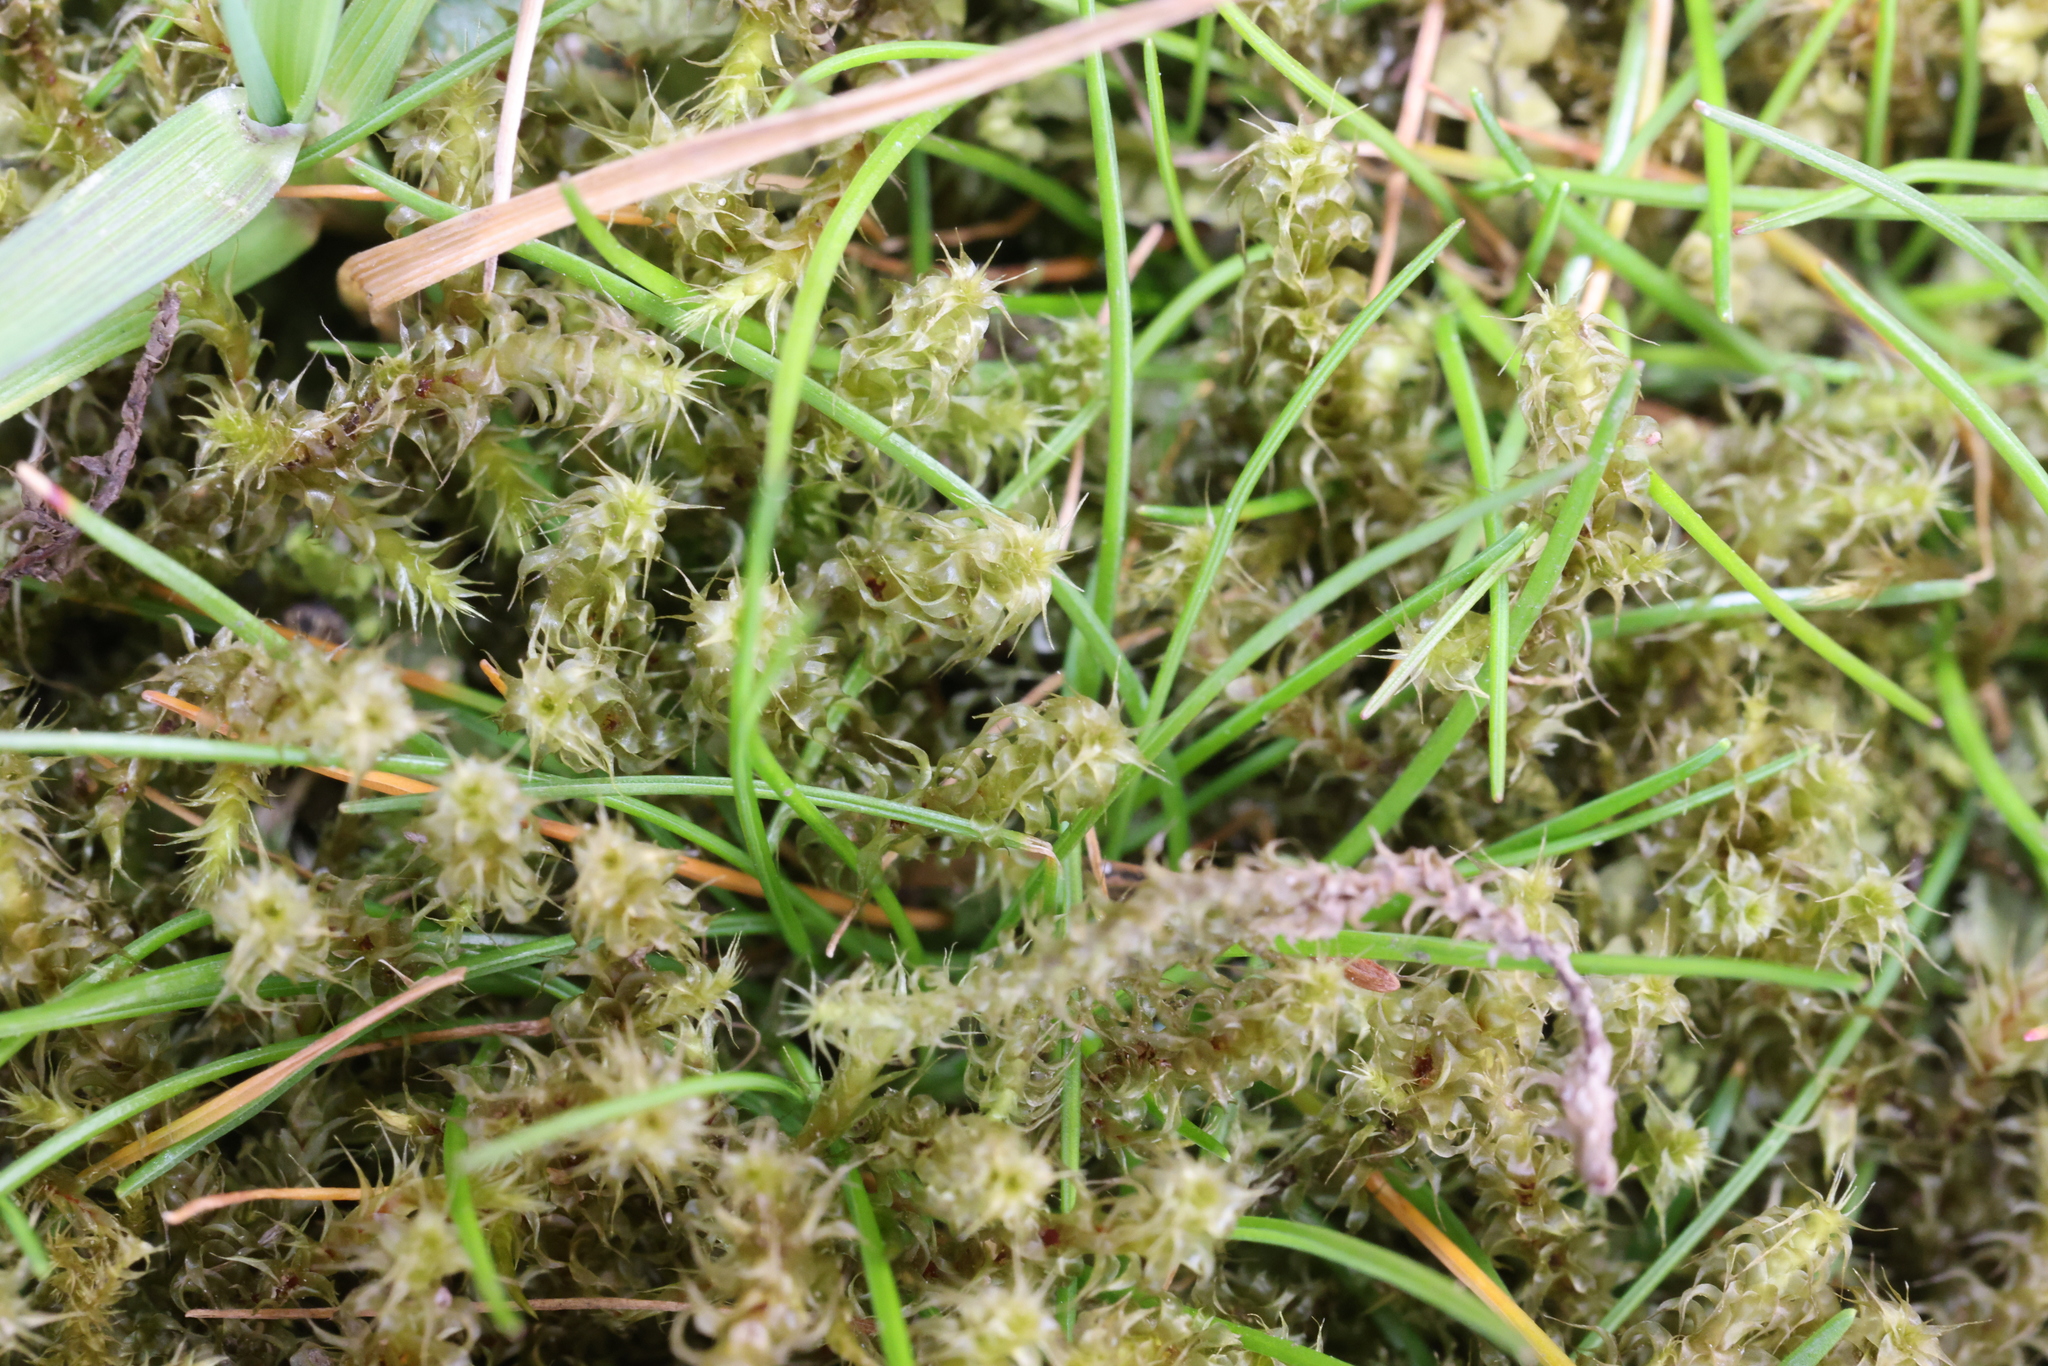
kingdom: Plantae
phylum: Bryophyta
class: Bryopsida
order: Hypnales
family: Hylocomiaceae
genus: Rhytidiadelphus
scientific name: Rhytidiadelphus squarrosus
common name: Springy turf-moss
